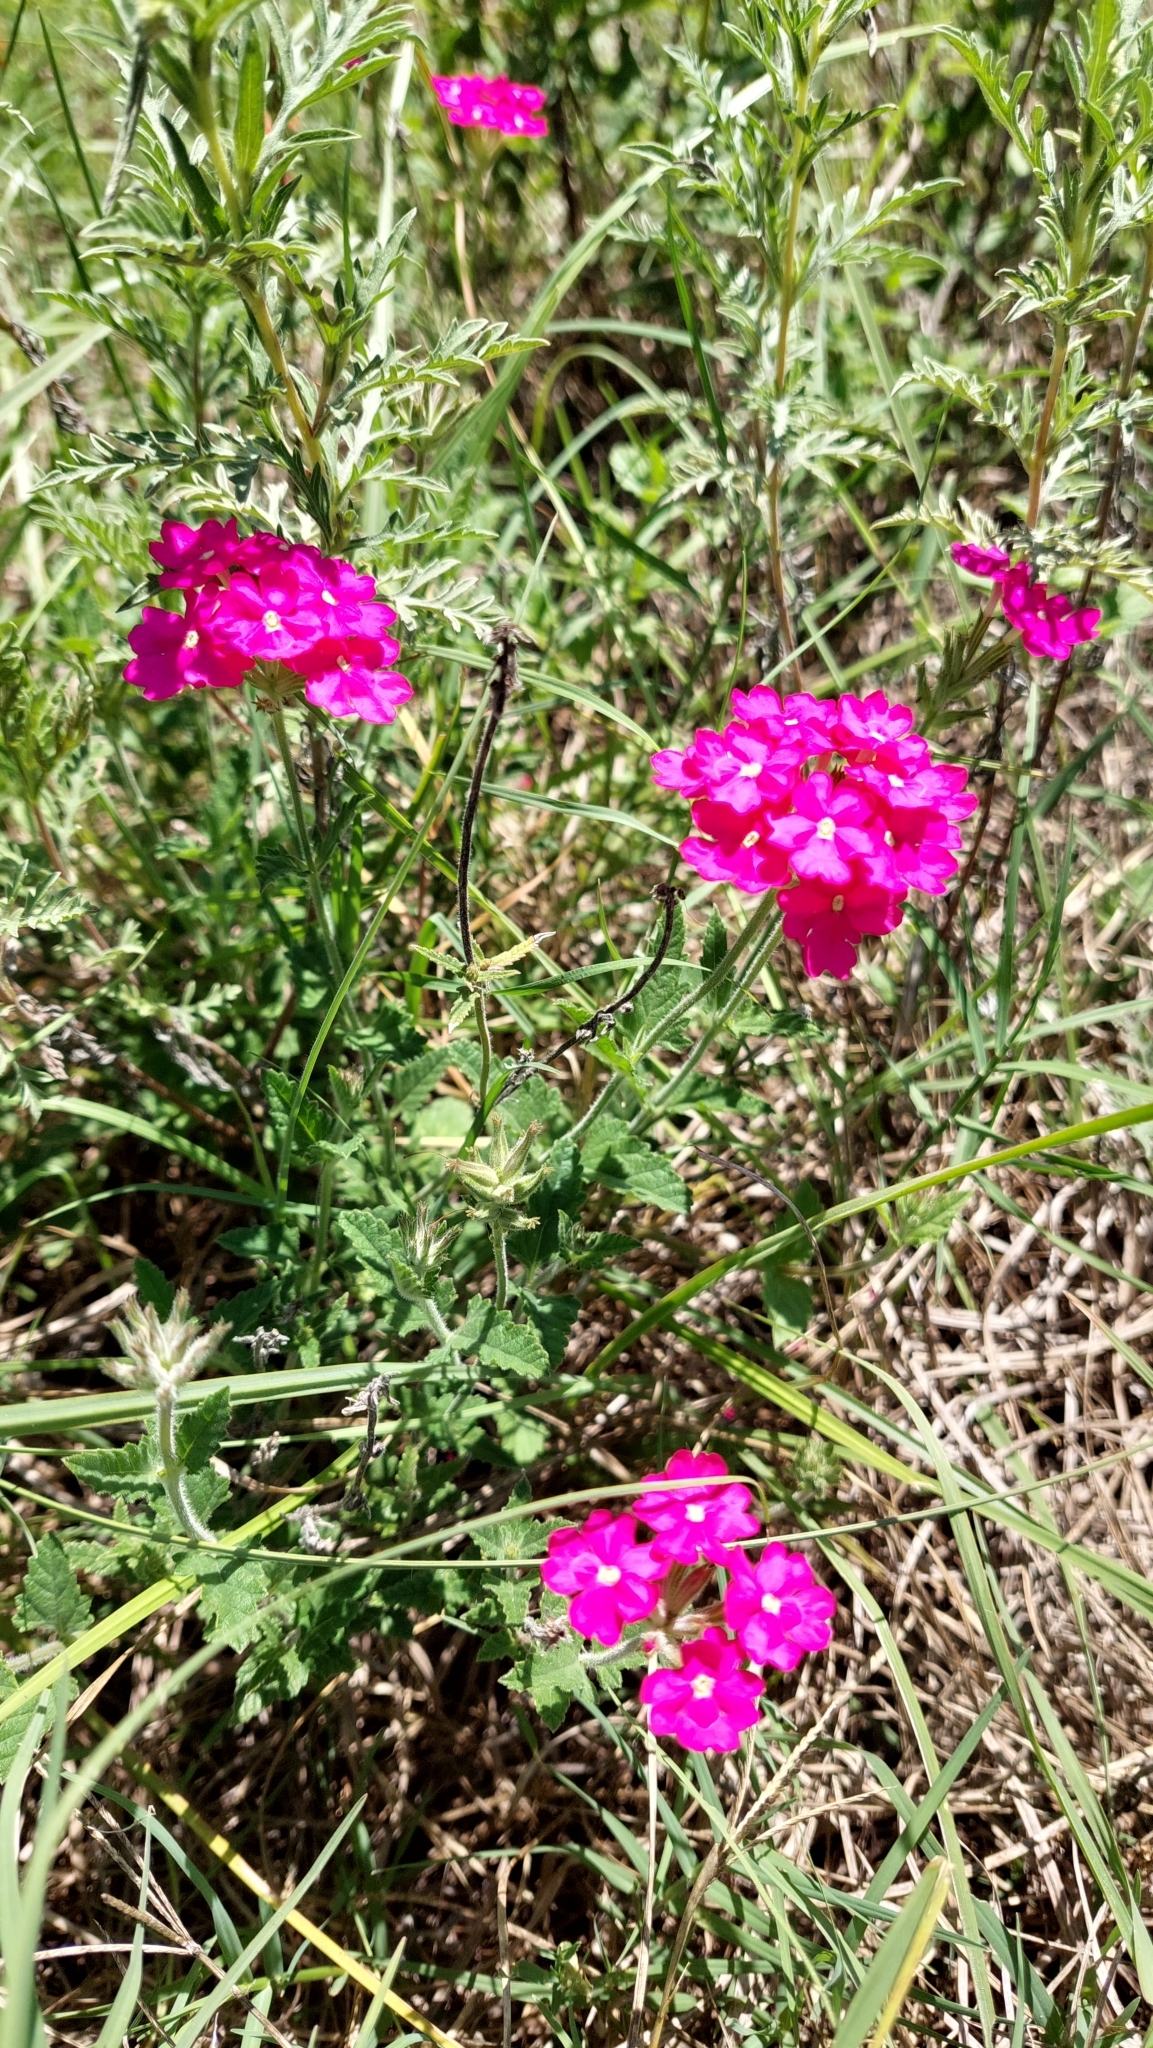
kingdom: Plantae
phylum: Tracheophyta
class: Magnoliopsida
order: Lamiales
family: Verbenaceae
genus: Verbena
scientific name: Verbena tweedieana
